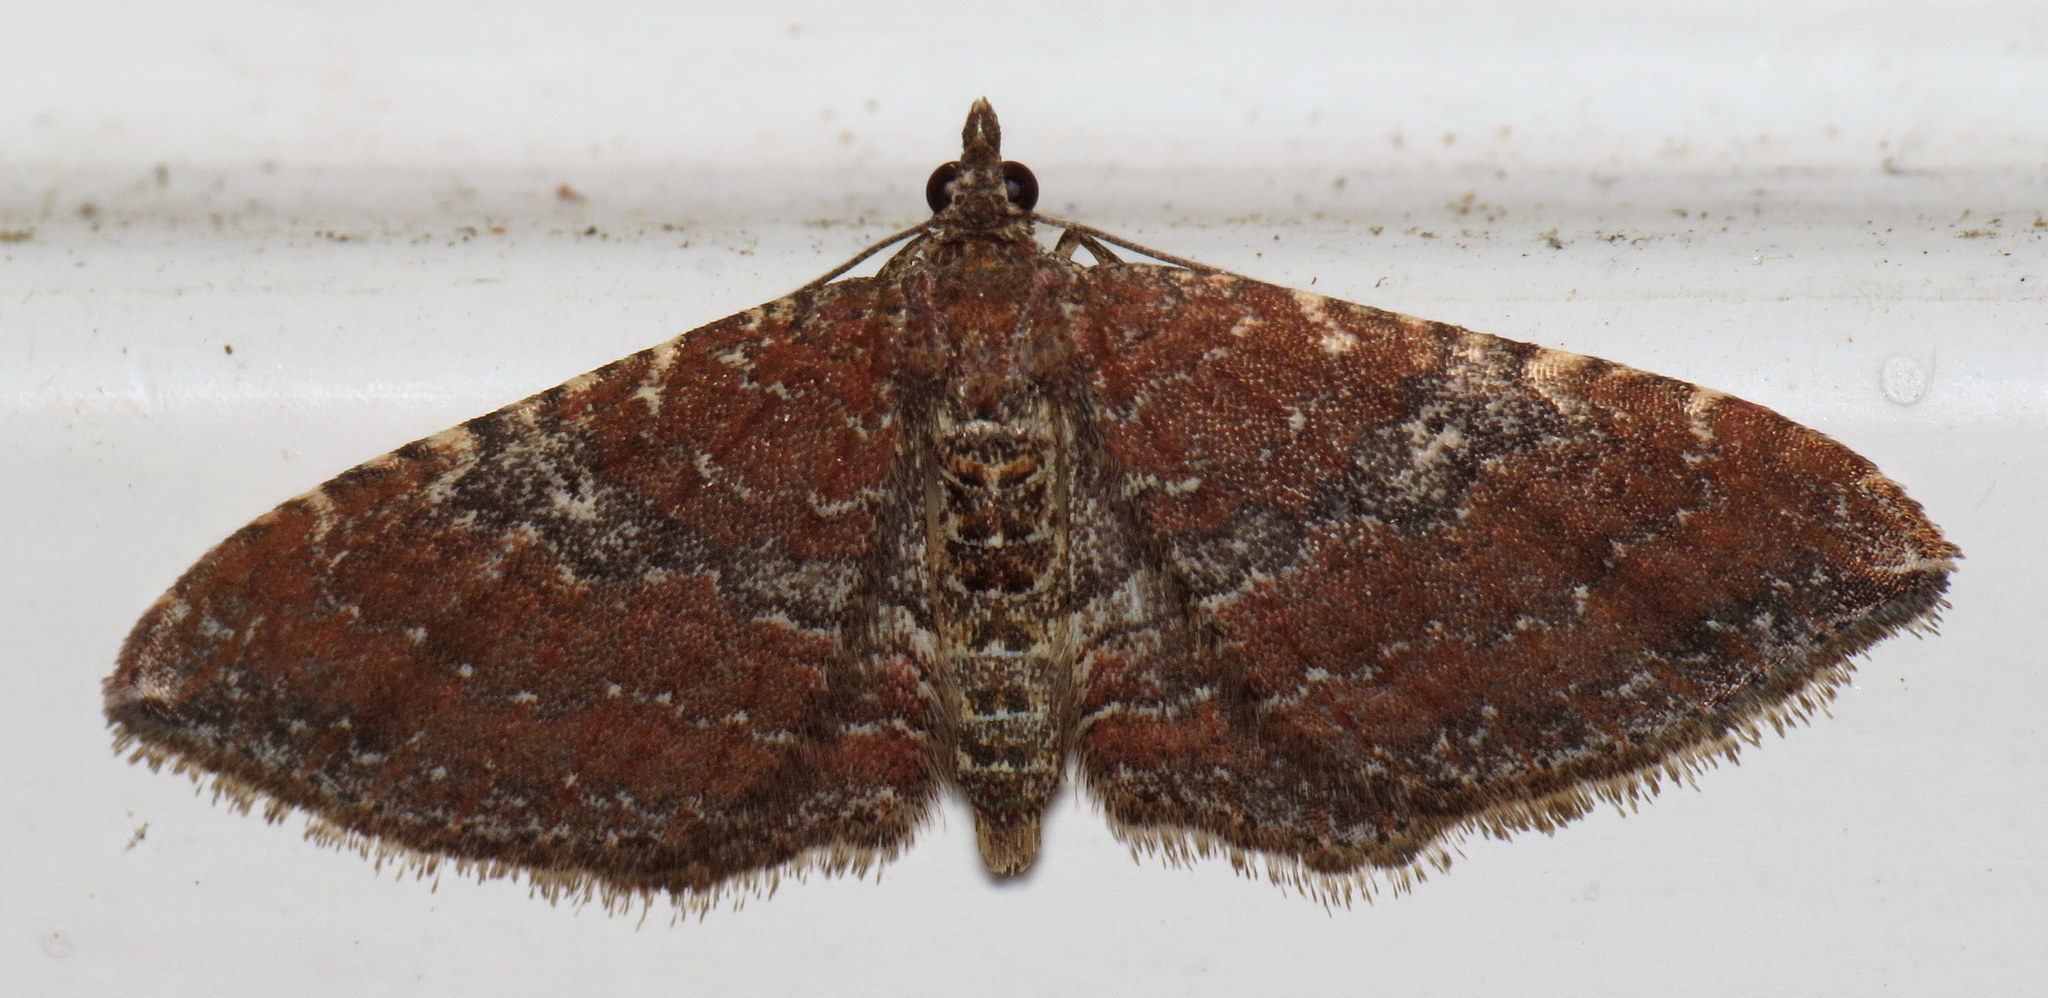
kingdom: Animalia
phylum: Arthropoda
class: Insecta
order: Lepidoptera
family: Geometridae
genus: Orthonama
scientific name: Orthonama obstipata
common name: The gem
